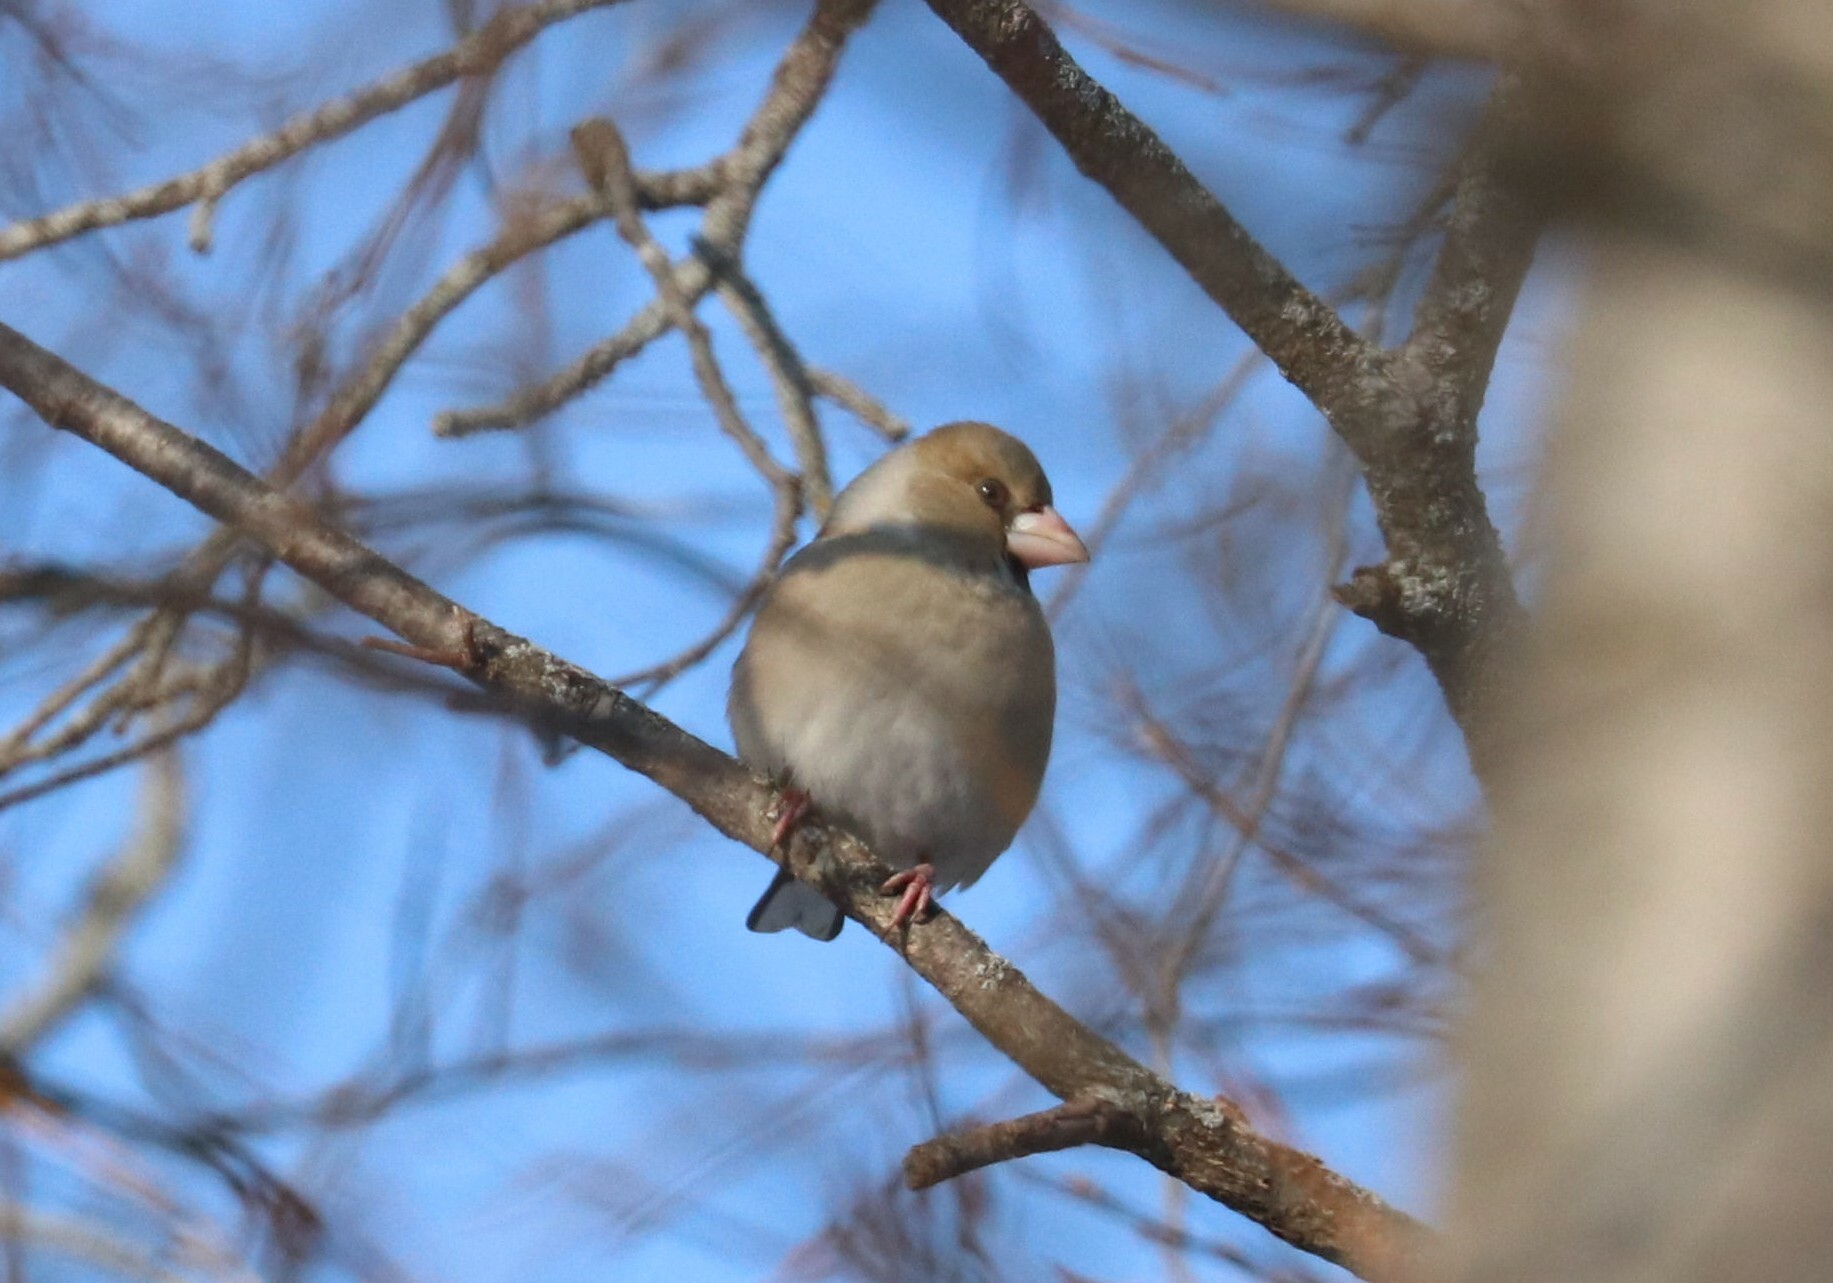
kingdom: Animalia
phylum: Chordata
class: Aves
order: Passeriformes
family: Fringillidae
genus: Coccothraustes
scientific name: Coccothraustes coccothraustes
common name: Hawfinch
